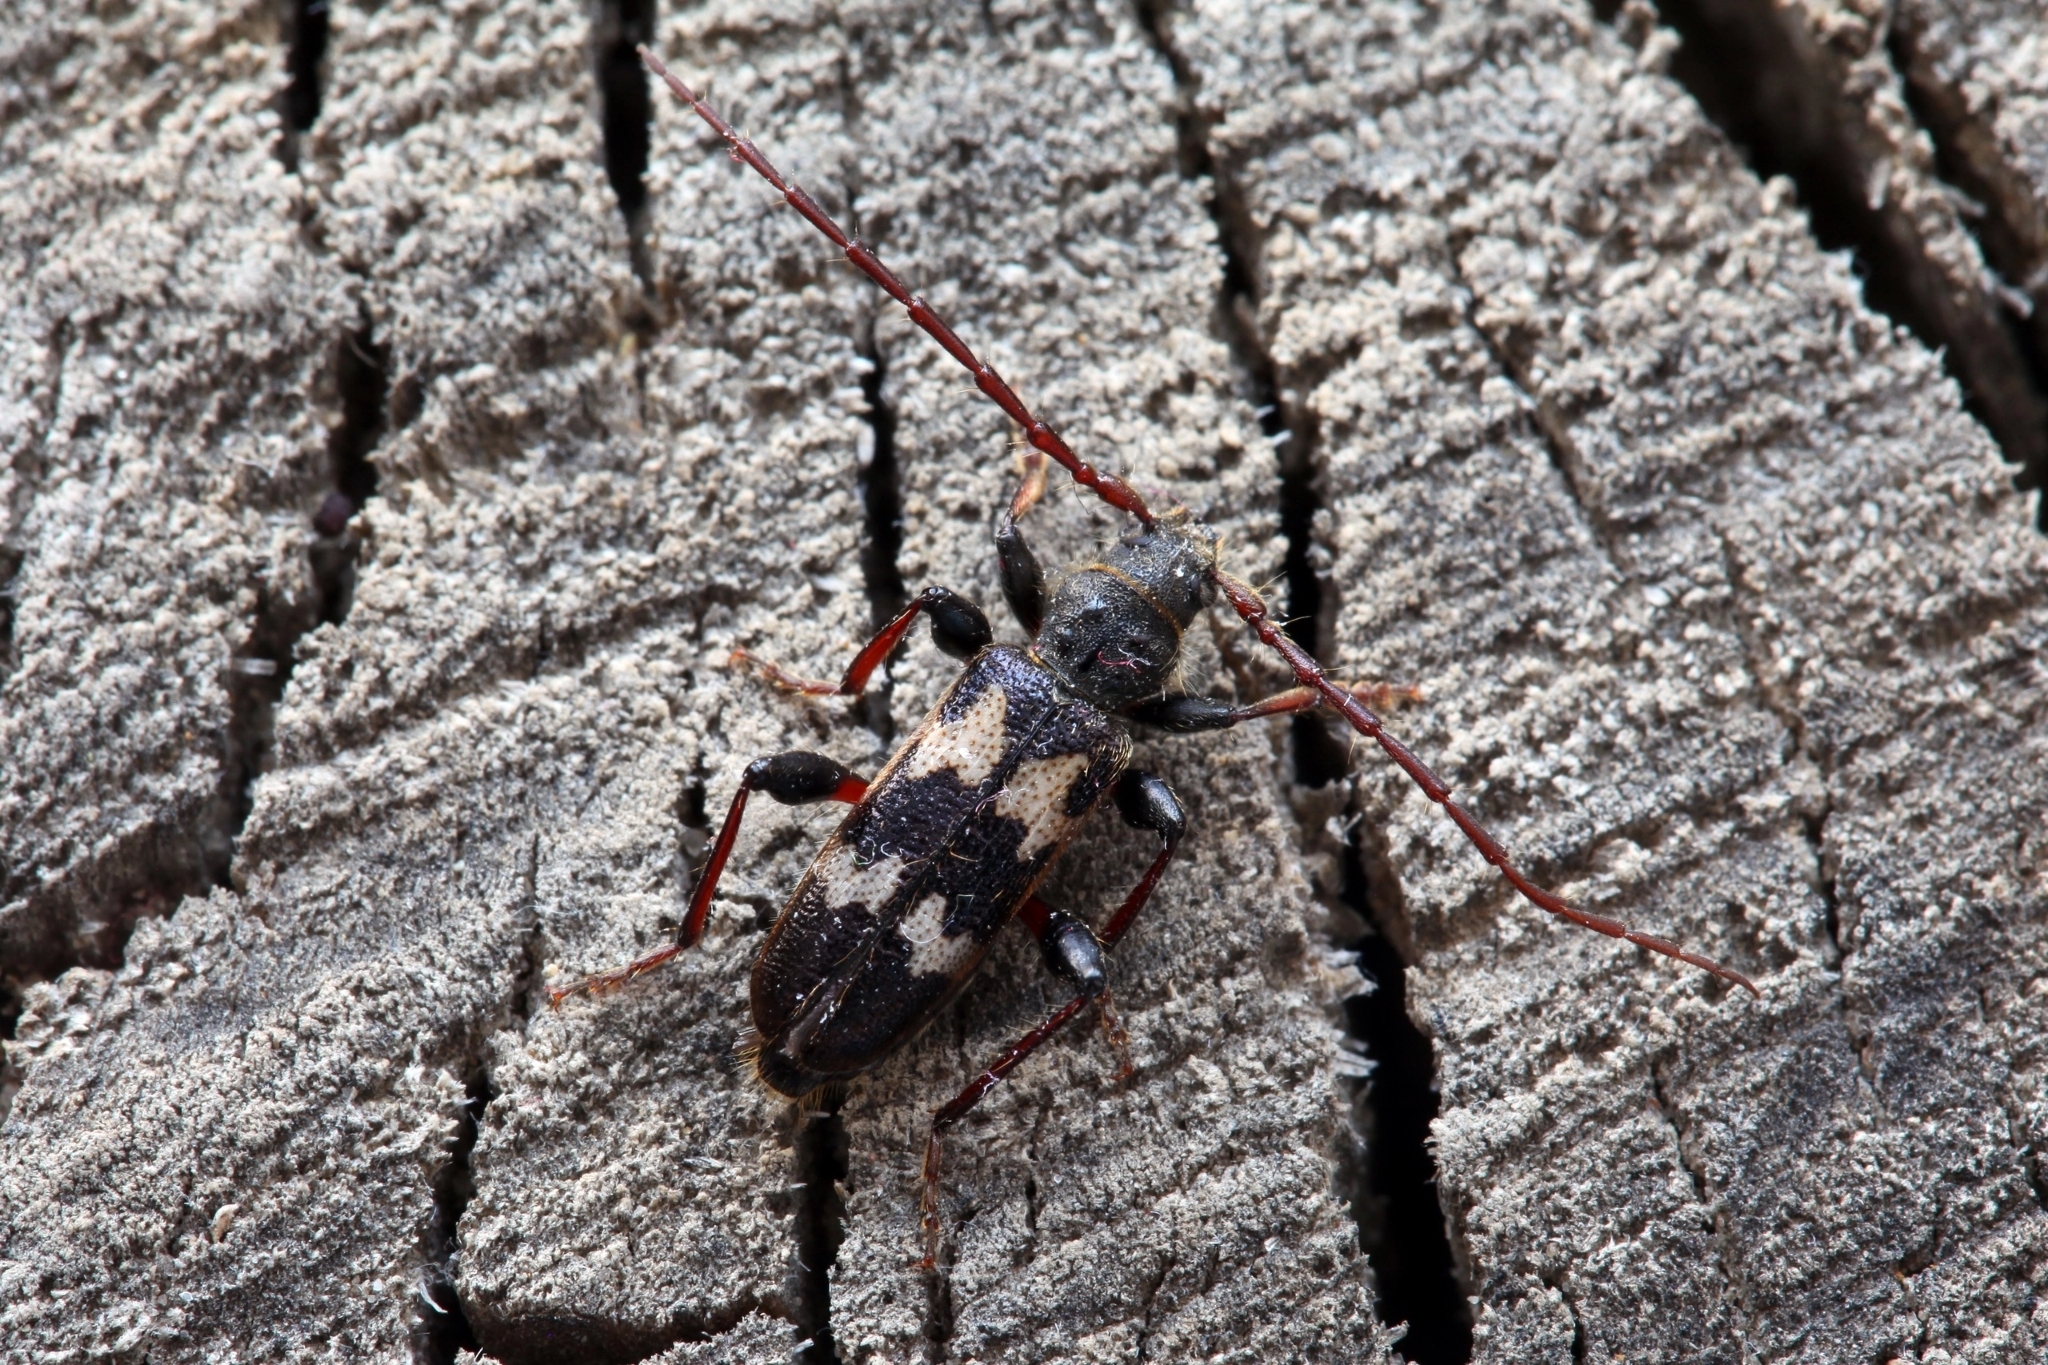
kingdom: Animalia
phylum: Arthropoda
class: Insecta
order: Coleoptera
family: Cerambycidae
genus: Semanotus
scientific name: Semanotus undatus
